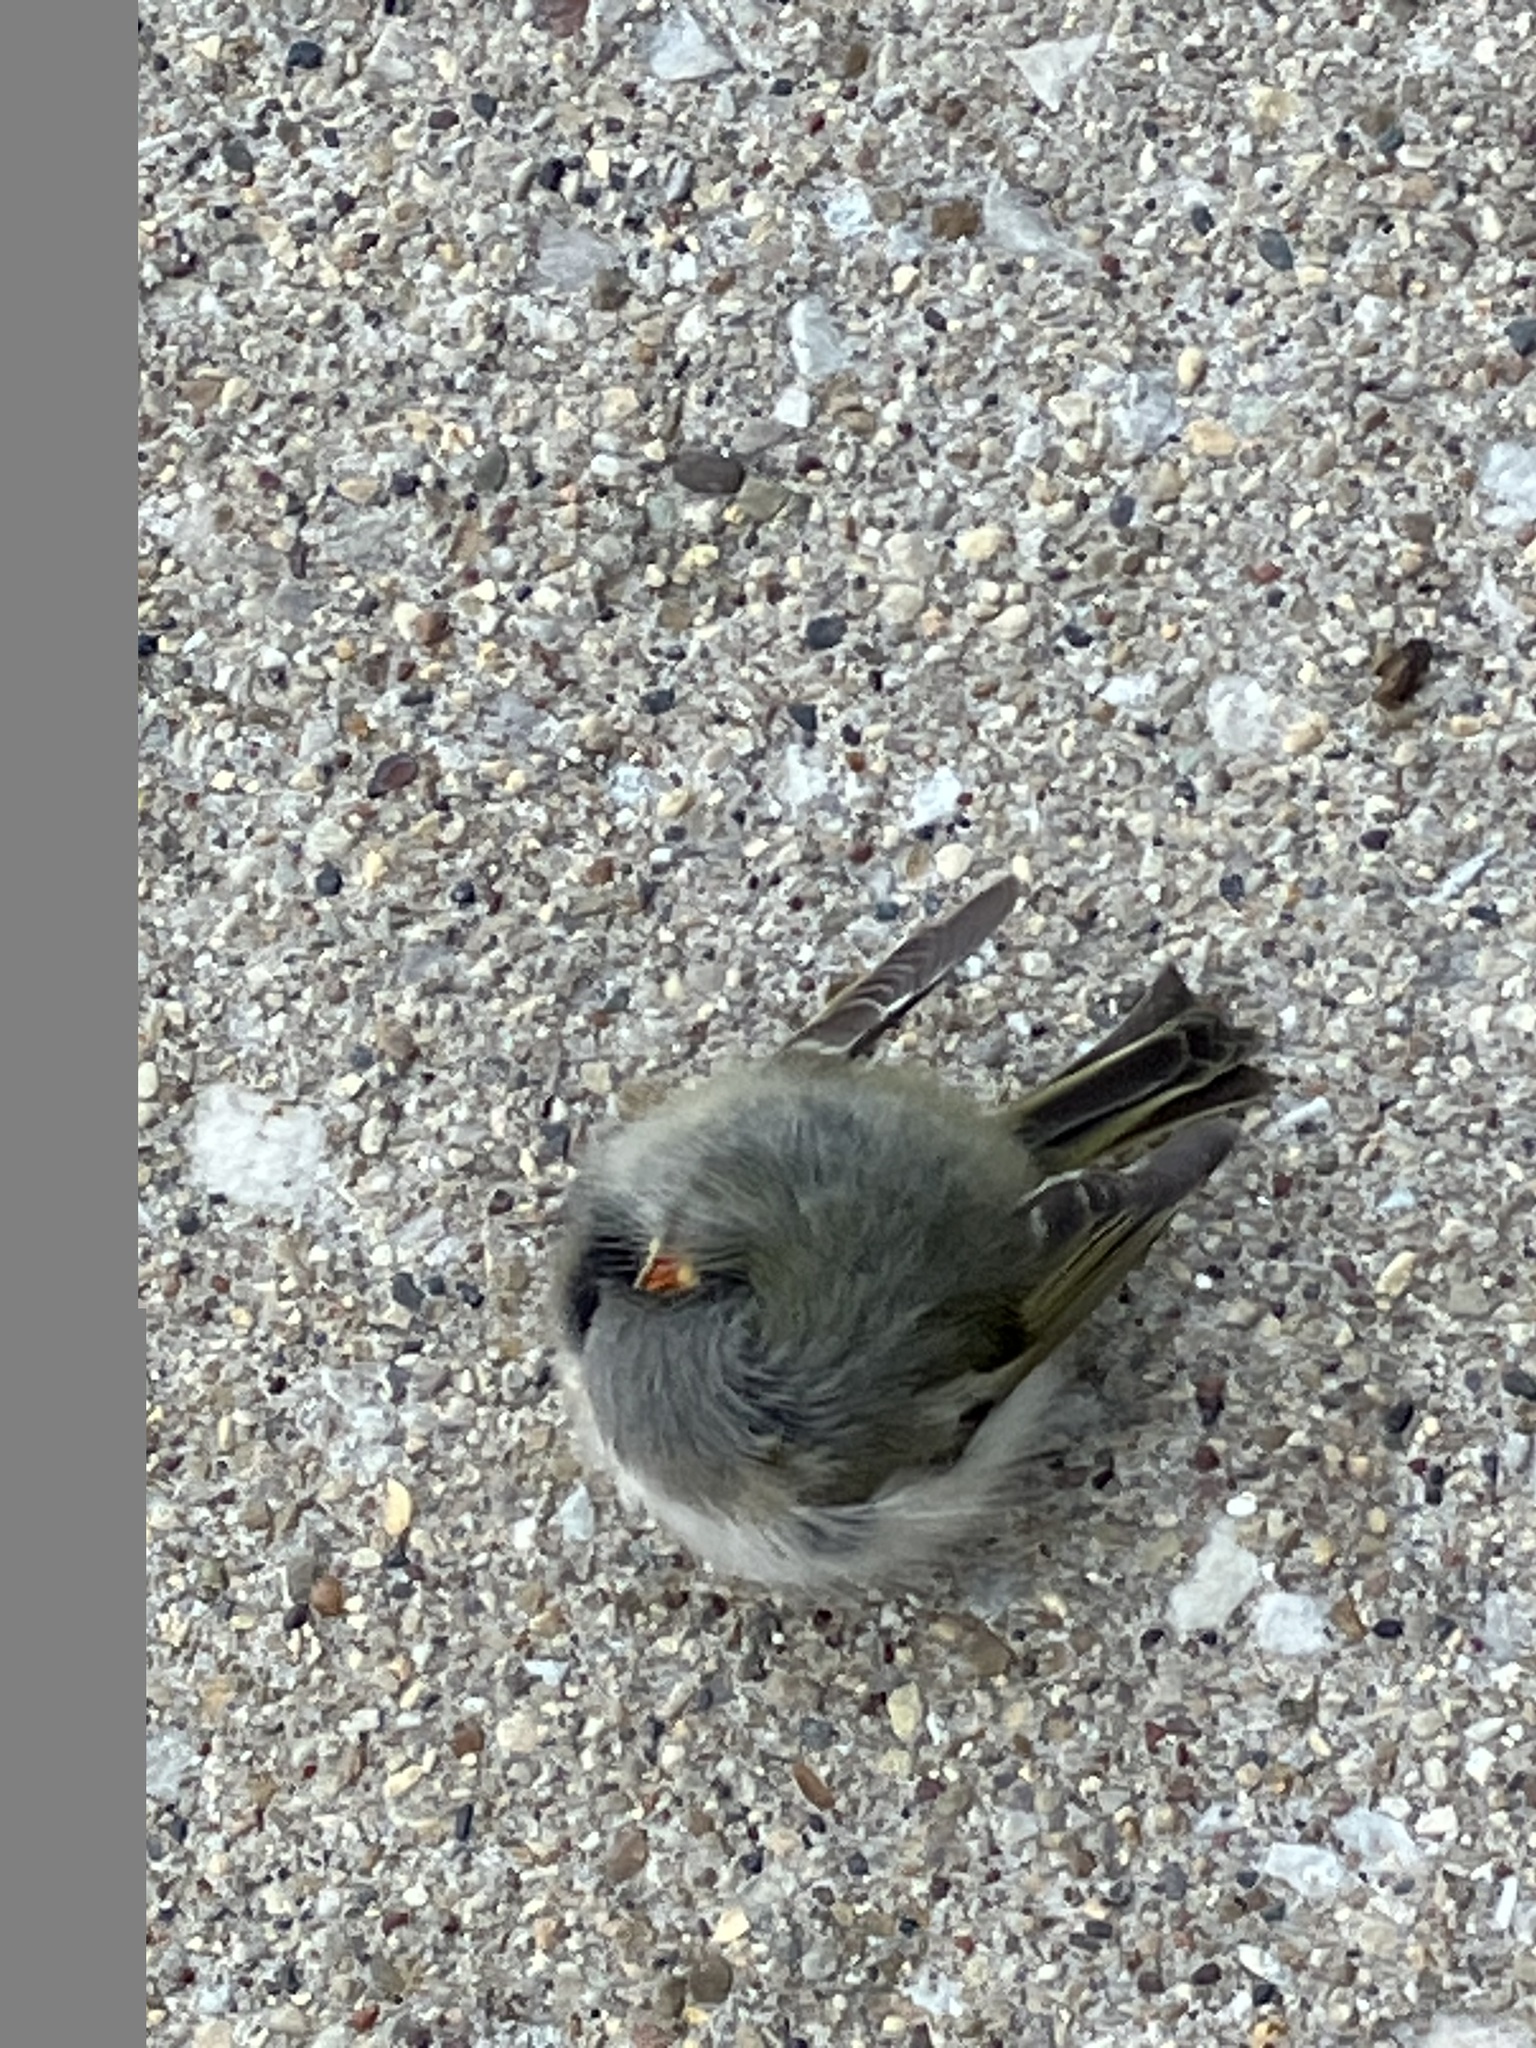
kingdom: Animalia
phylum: Chordata
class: Aves
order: Passeriformes
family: Regulidae
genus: Regulus
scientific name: Regulus satrapa
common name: Golden-crowned kinglet
